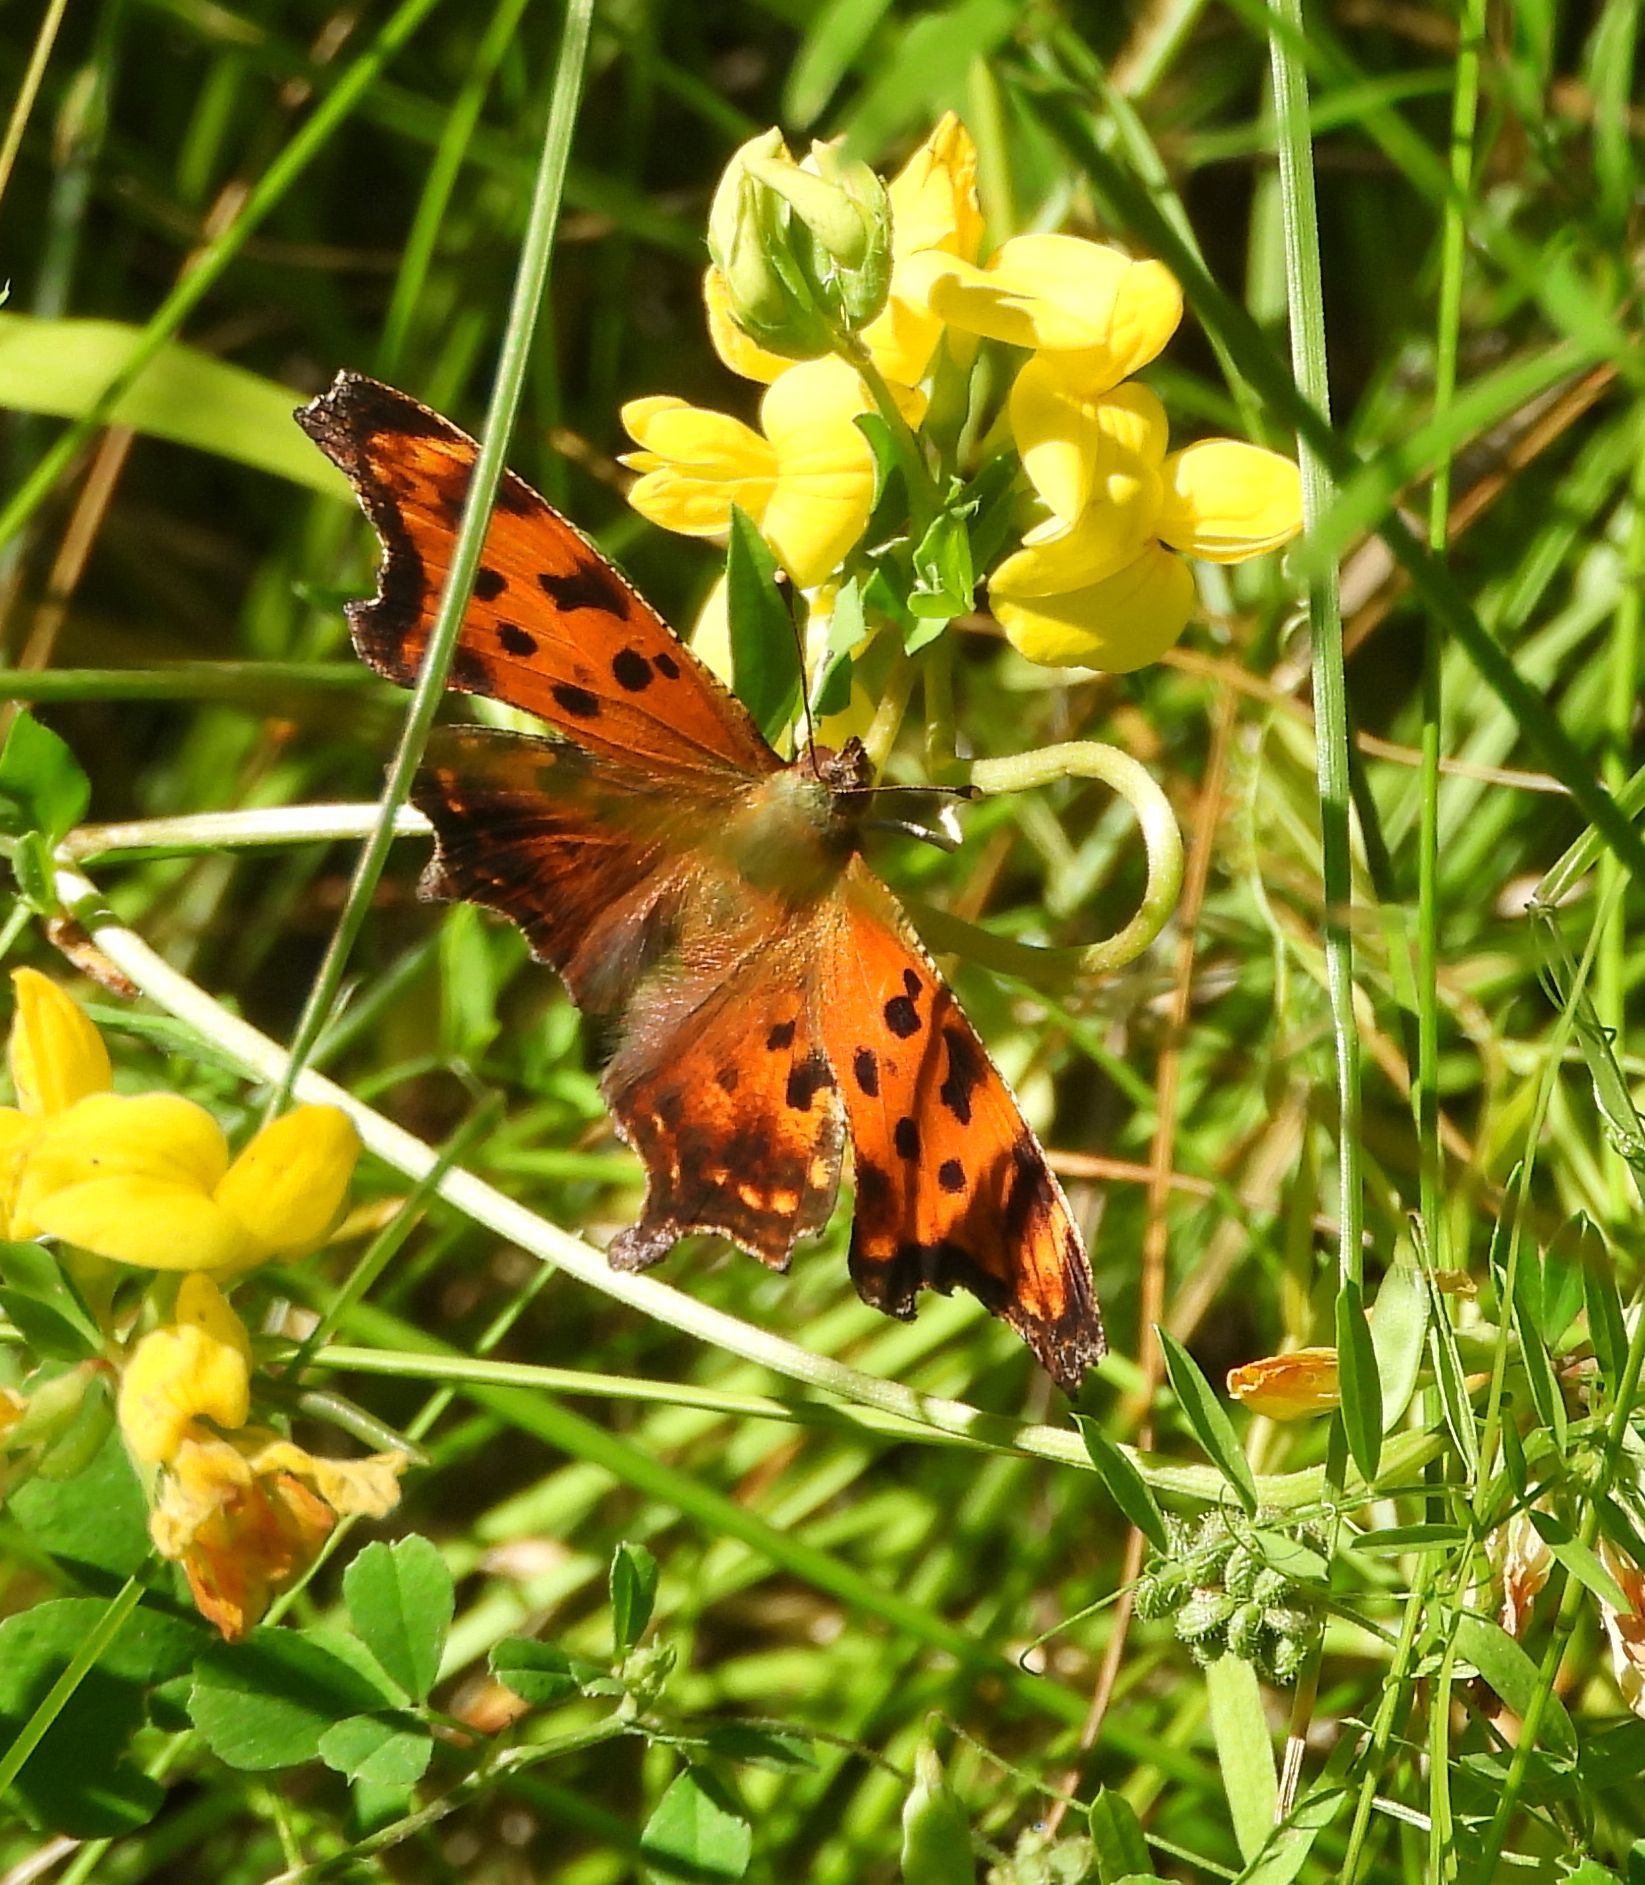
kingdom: Animalia
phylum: Arthropoda
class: Insecta
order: Lepidoptera
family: Nymphalidae
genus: Polygonia
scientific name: Polygonia comma
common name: Eastern comma
